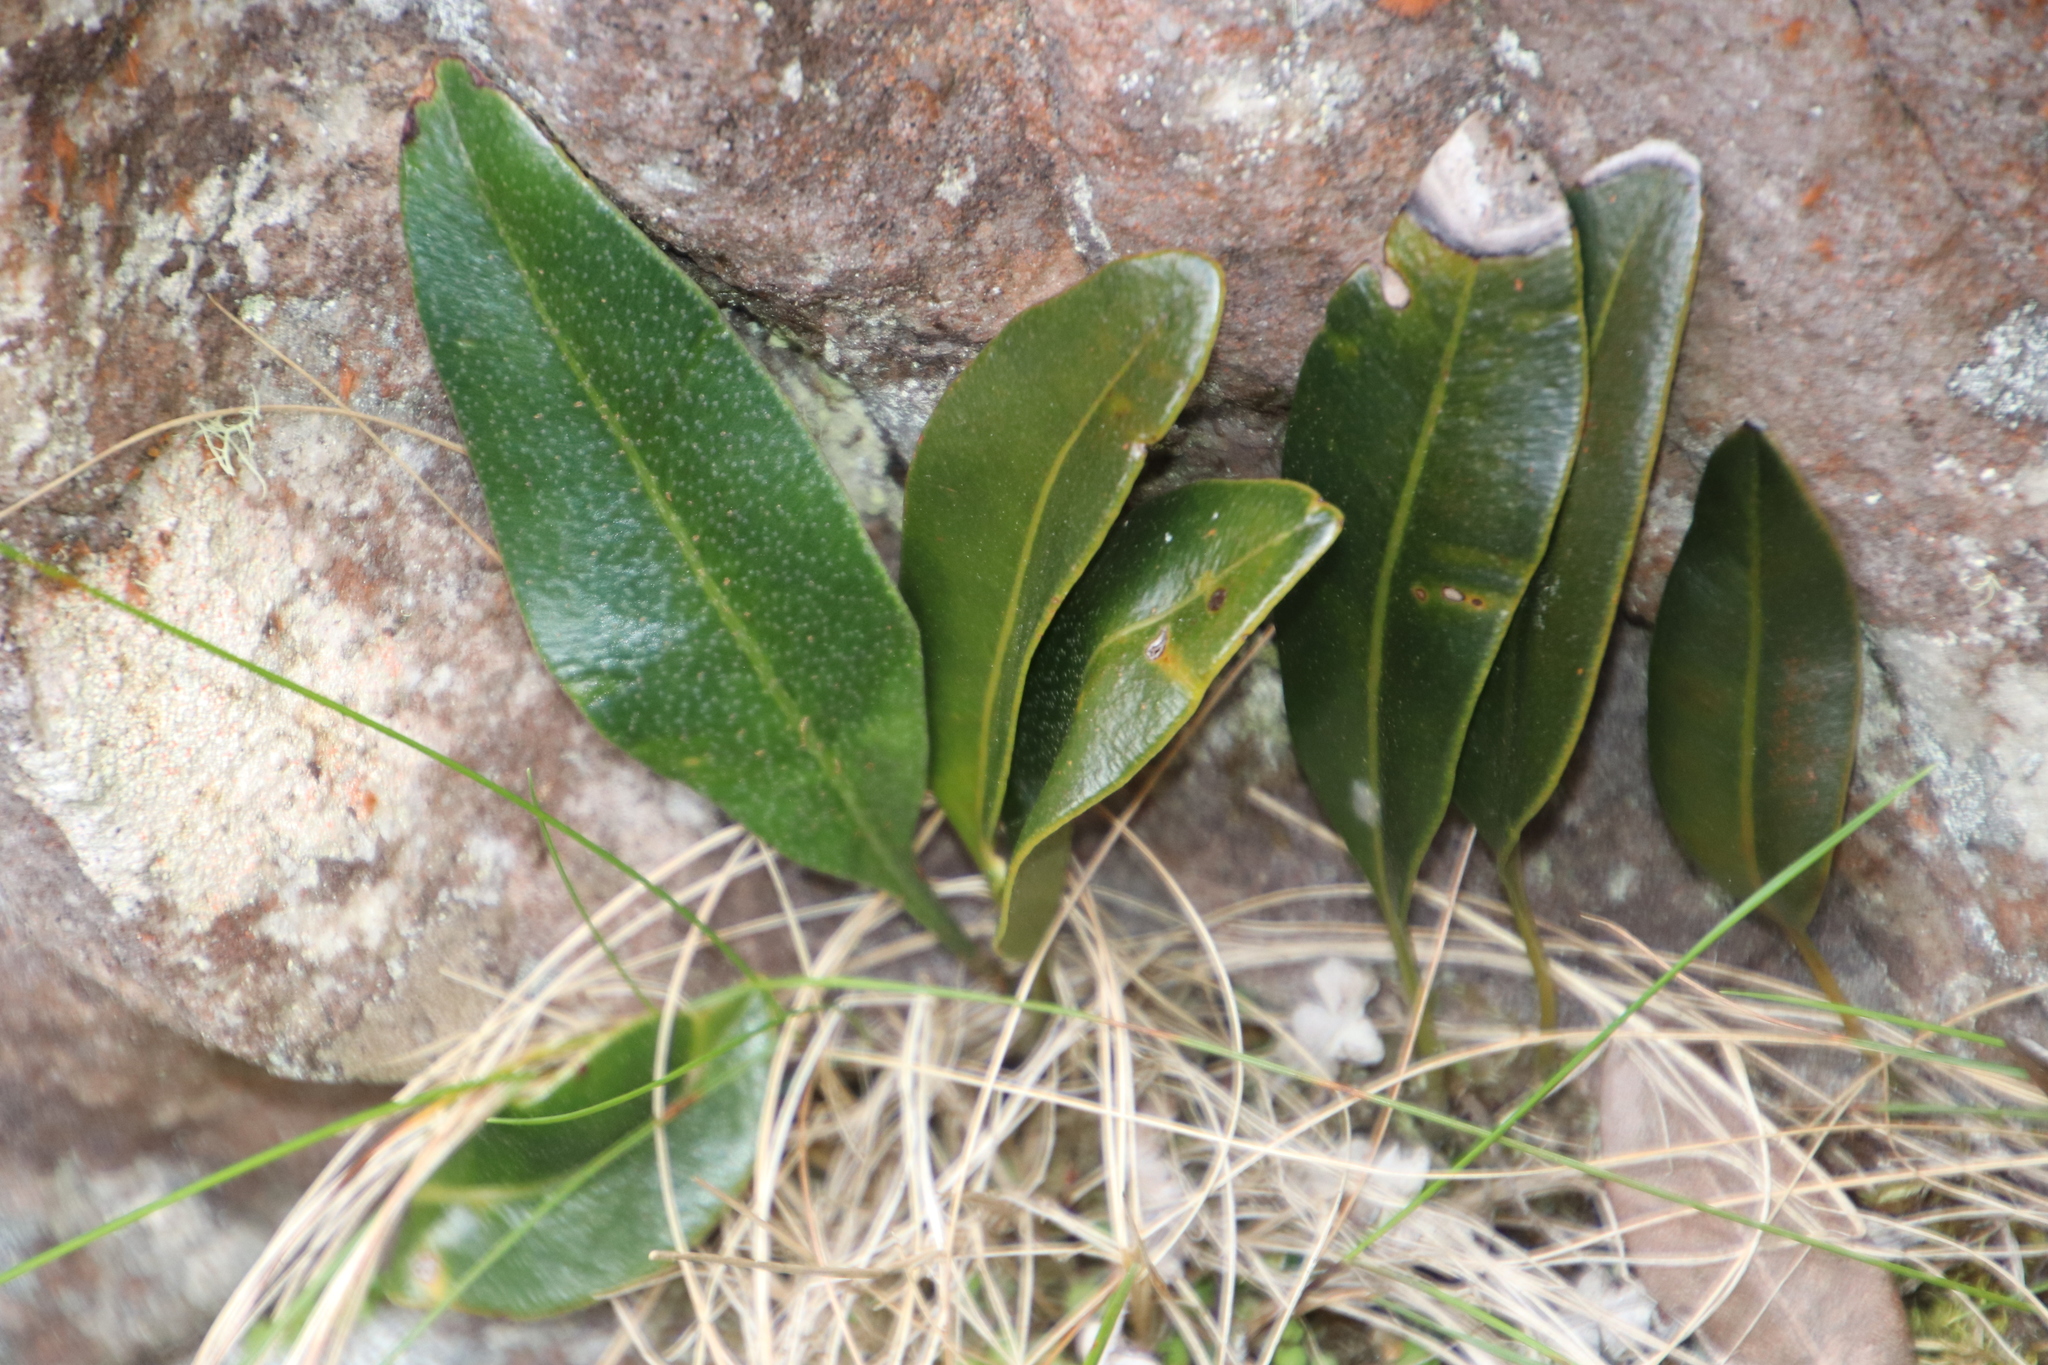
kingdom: Plantae
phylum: Tracheophyta
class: Polypodiopsida
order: Polypodiales
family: Dryopteridaceae
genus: Elaphoglossum
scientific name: Elaphoglossum conforme
